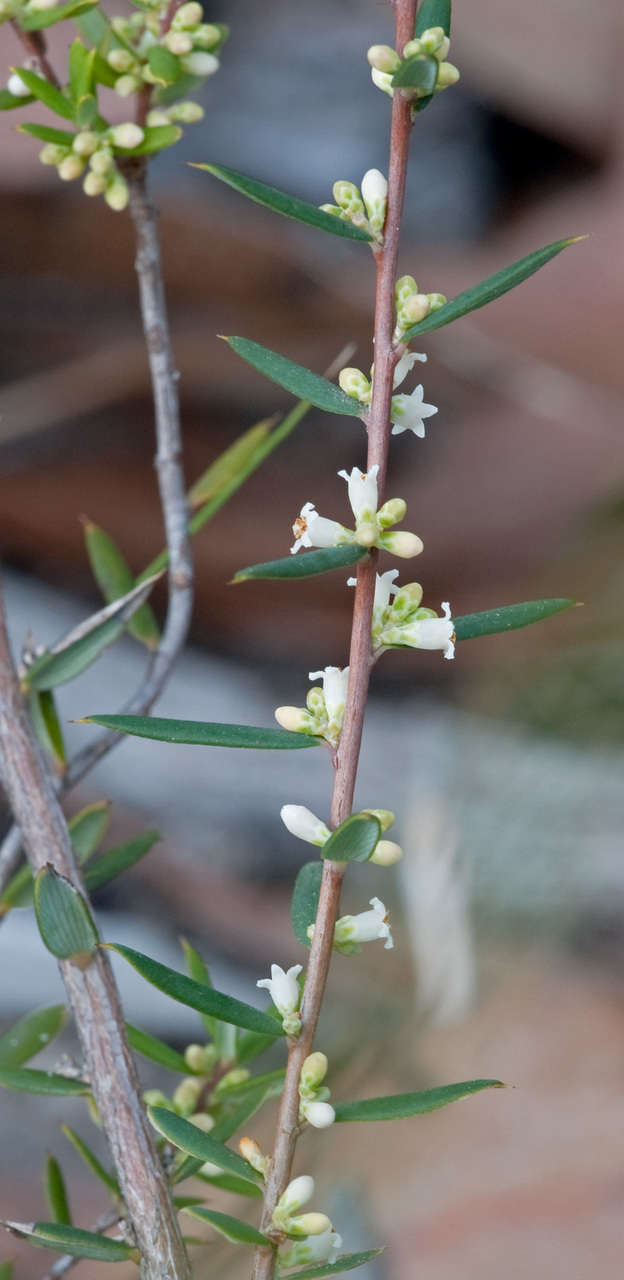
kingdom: Plantae
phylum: Tracheophyta
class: Magnoliopsida
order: Ericales
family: Ericaceae
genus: Monotoca
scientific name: Monotoca scoparia
